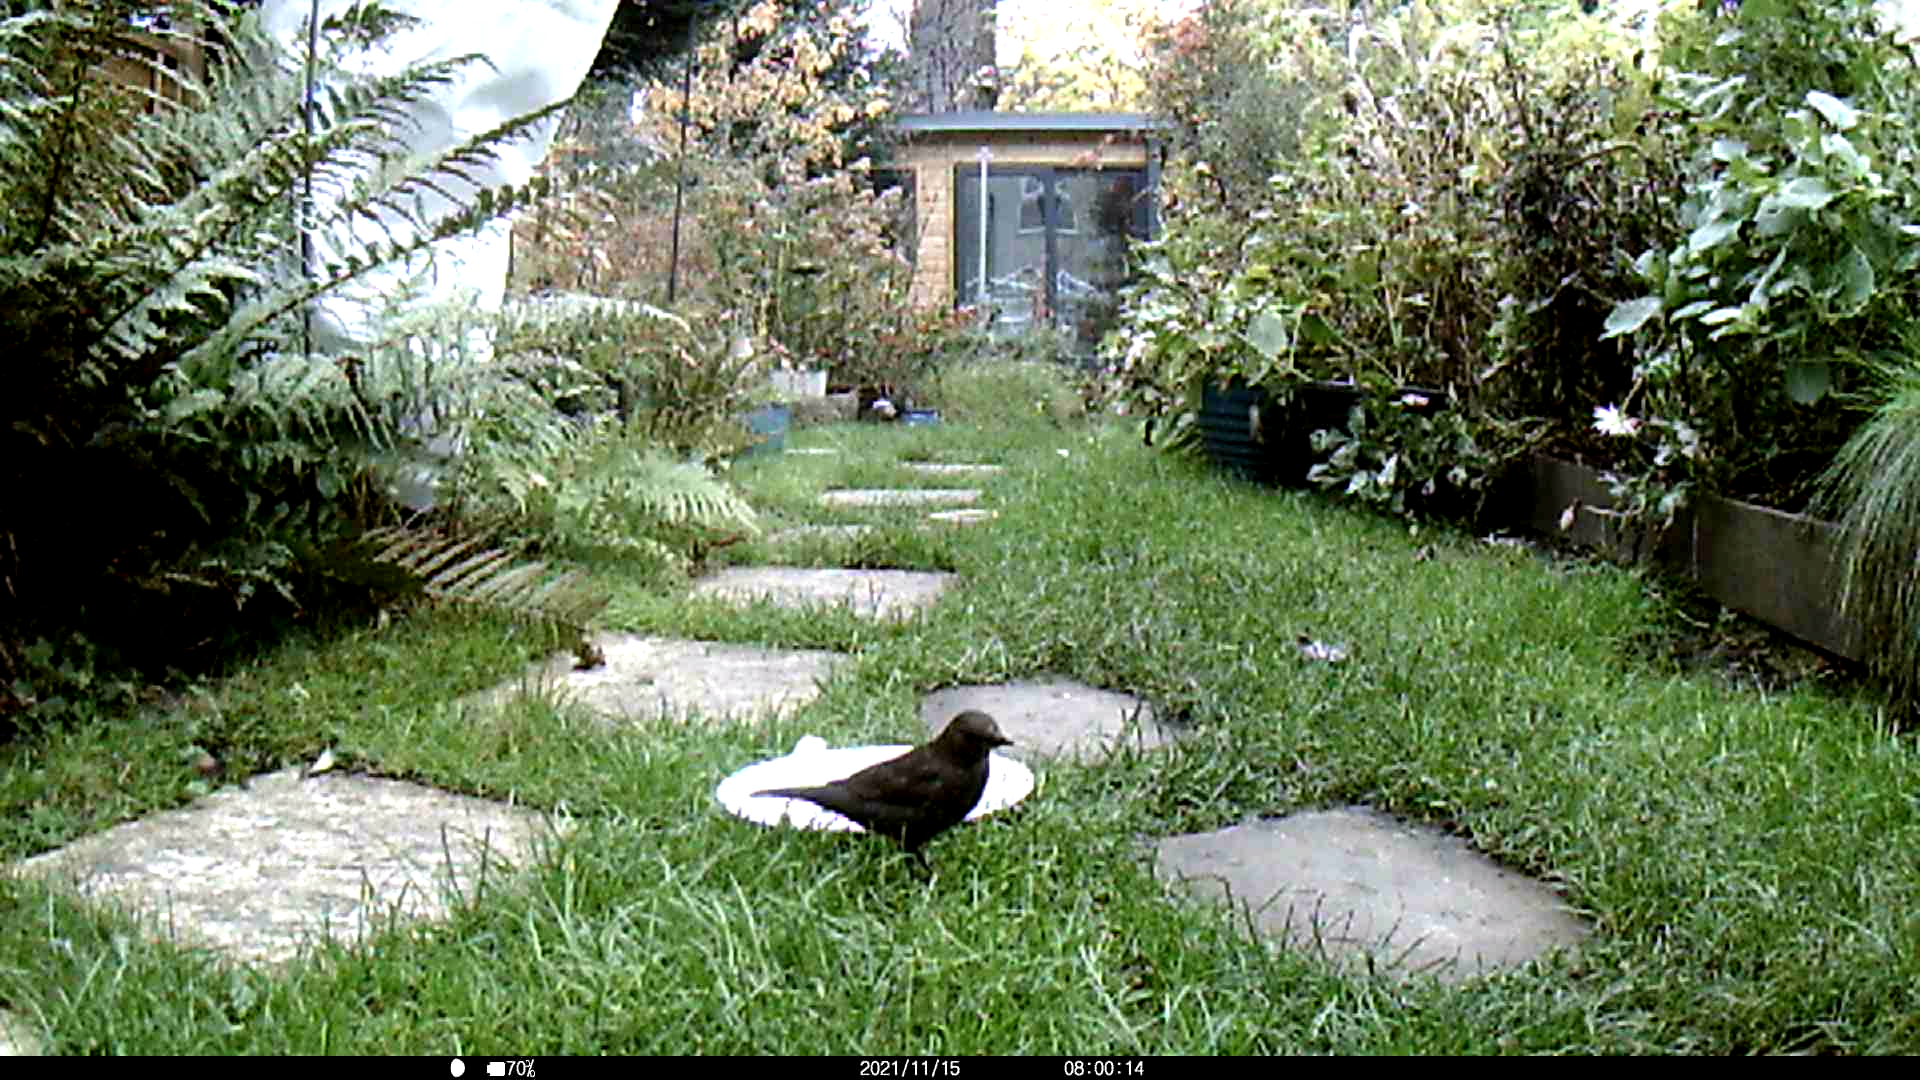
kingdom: Animalia
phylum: Chordata
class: Aves
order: Passeriformes
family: Turdidae
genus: Turdus
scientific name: Turdus merula
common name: Common blackbird
